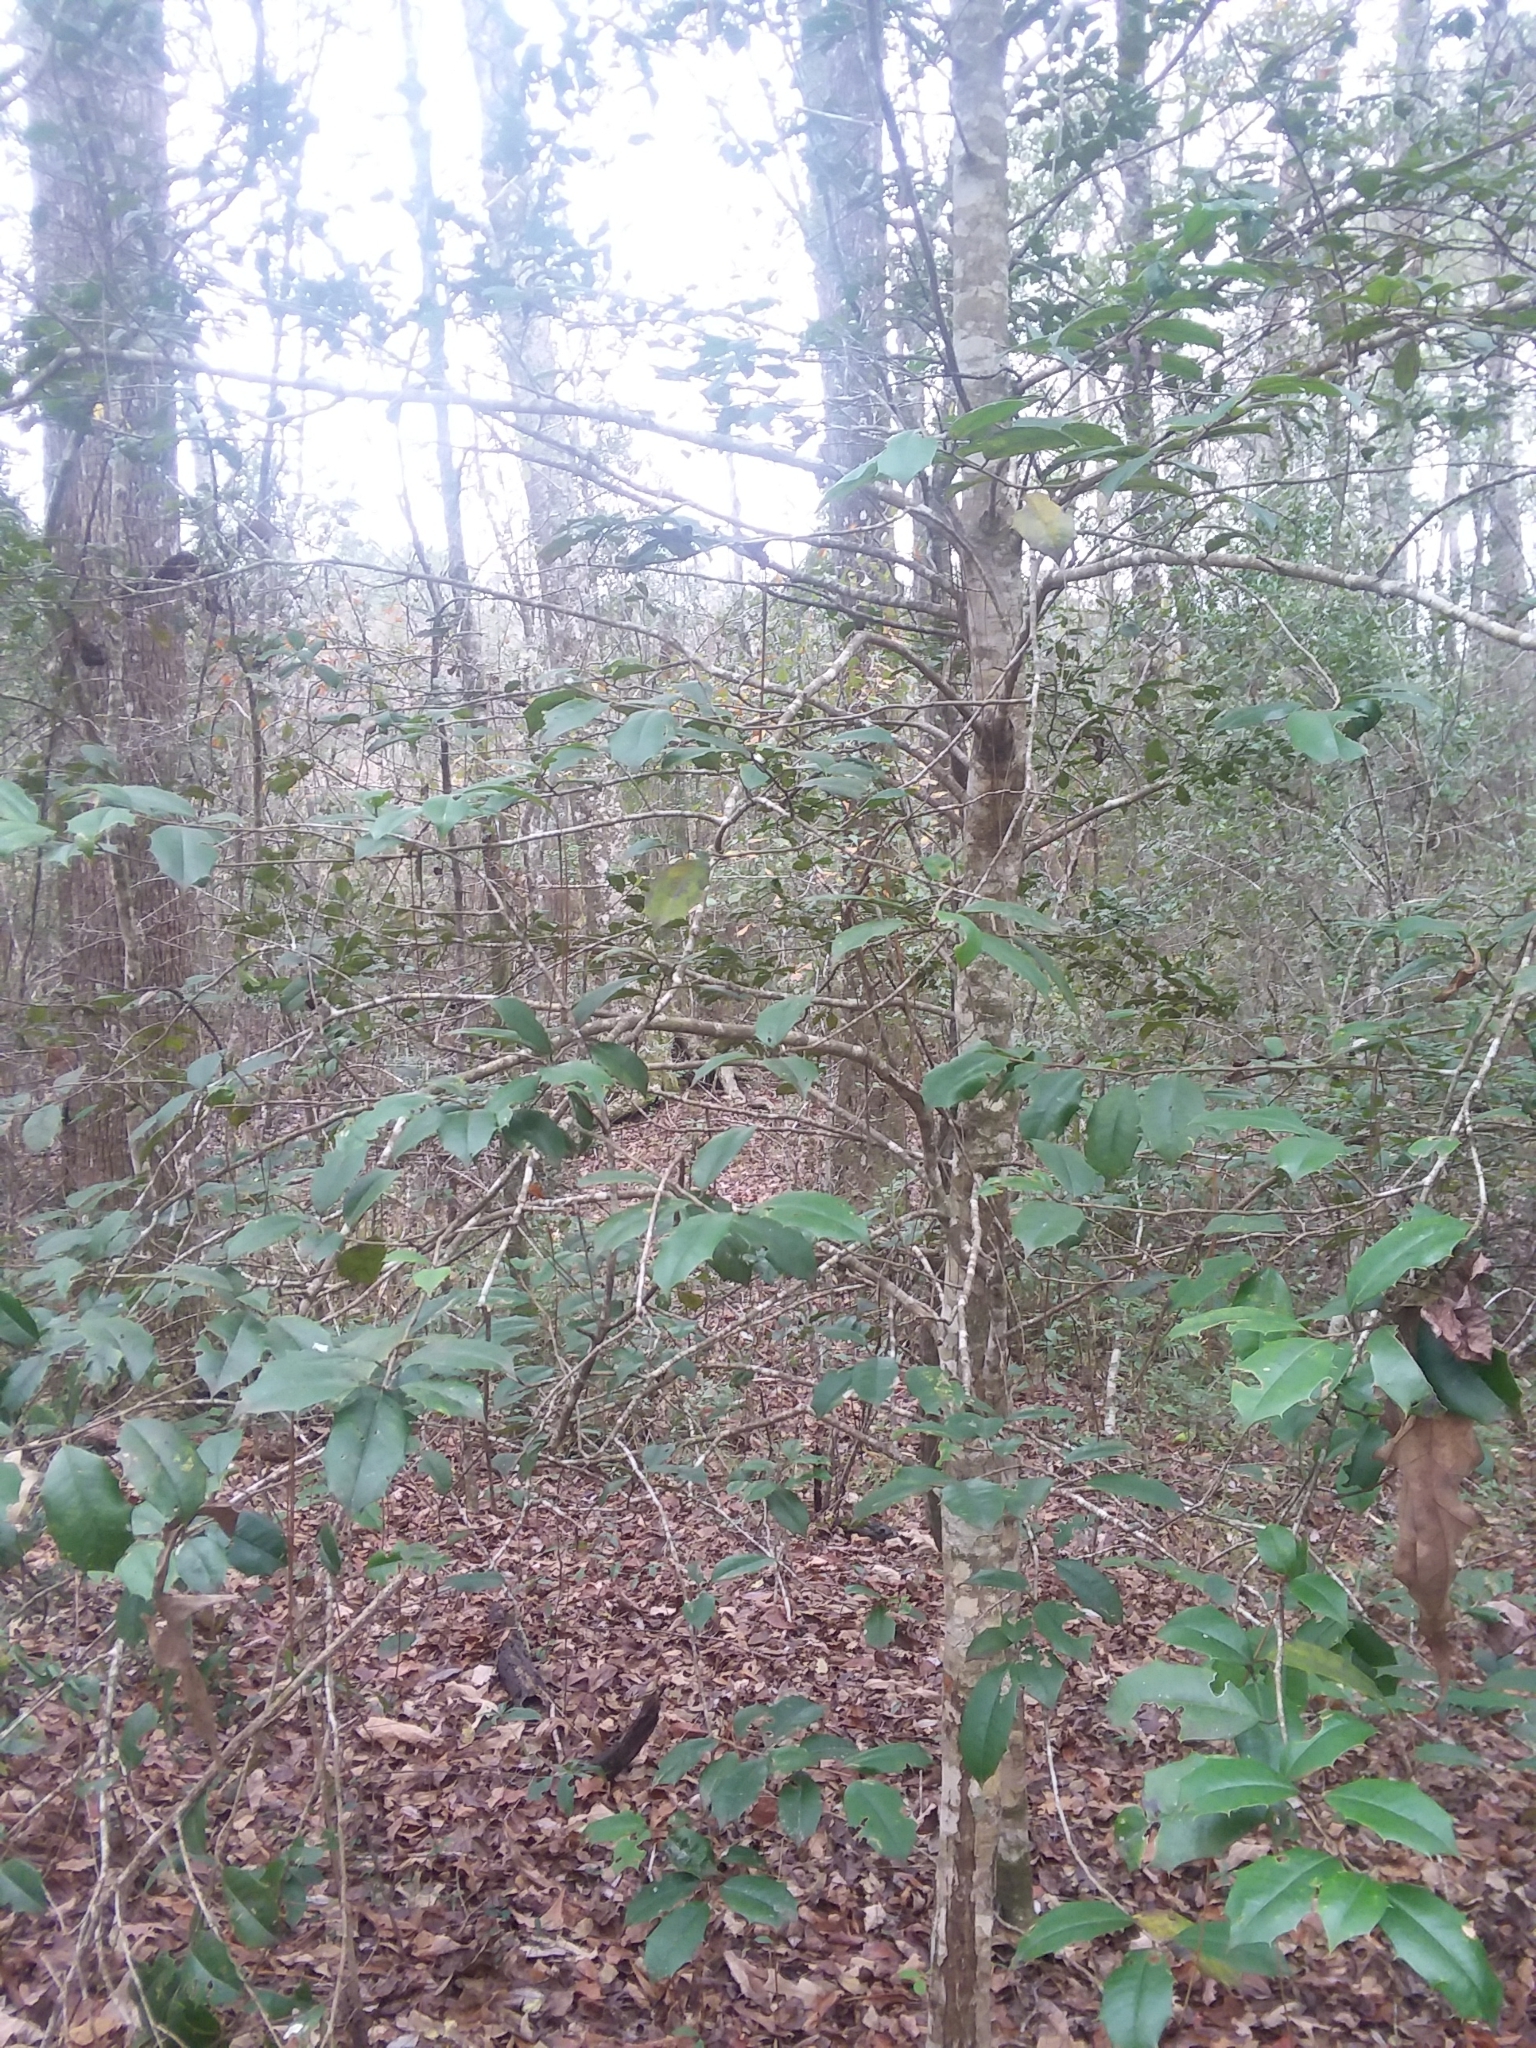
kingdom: Plantae
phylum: Tracheophyta
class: Magnoliopsida
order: Aquifoliales
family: Aquifoliaceae
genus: Ilex
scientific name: Ilex opaca
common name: American holly
